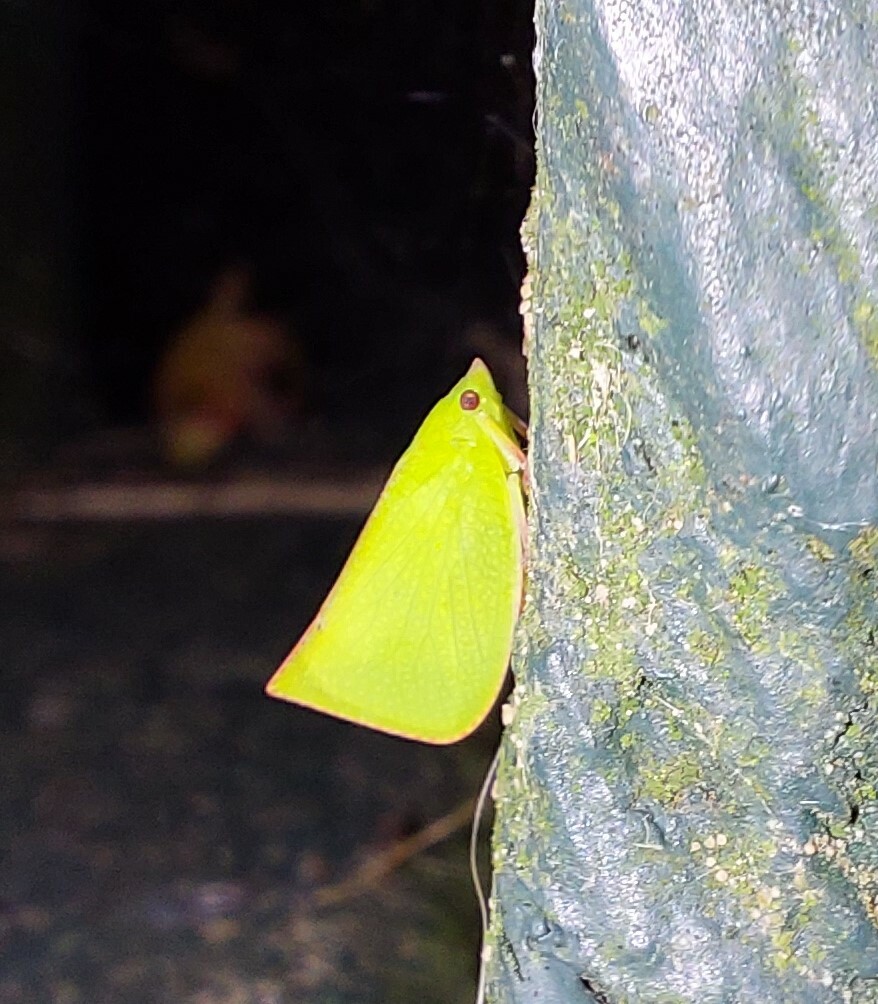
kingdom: Animalia
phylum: Arthropoda
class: Insecta
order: Hemiptera
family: Flatidae
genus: Siphanta
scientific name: Siphanta acuta
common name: Torpedo bug
